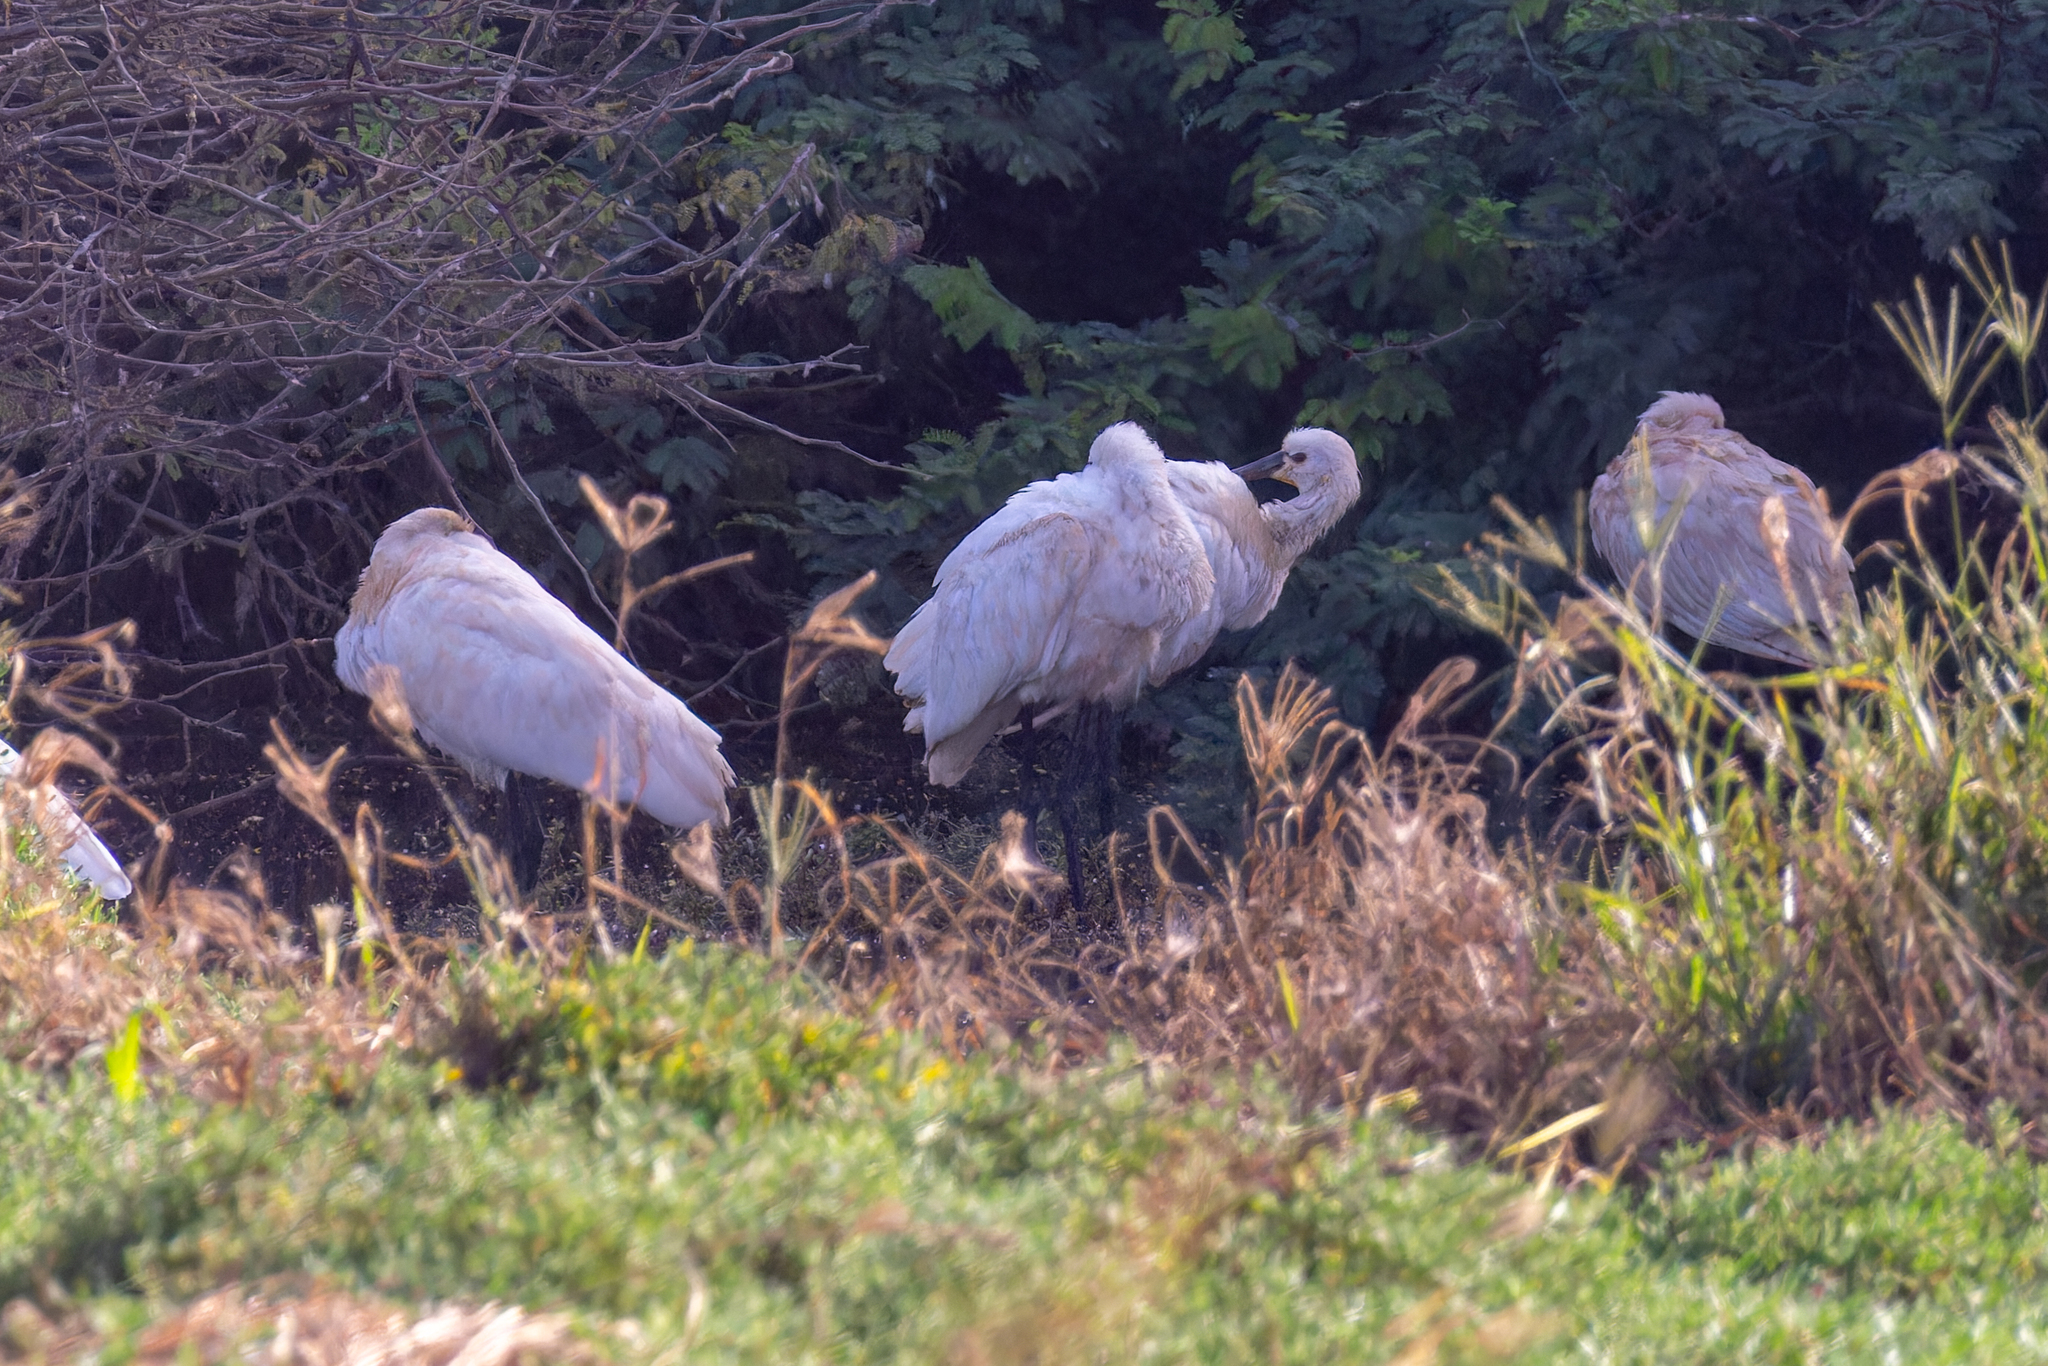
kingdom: Animalia
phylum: Chordata
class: Aves
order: Pelecaniformes
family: Threskiornithidae
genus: Platalea
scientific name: Platalea leucorodia
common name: Eurasian spoonbill
